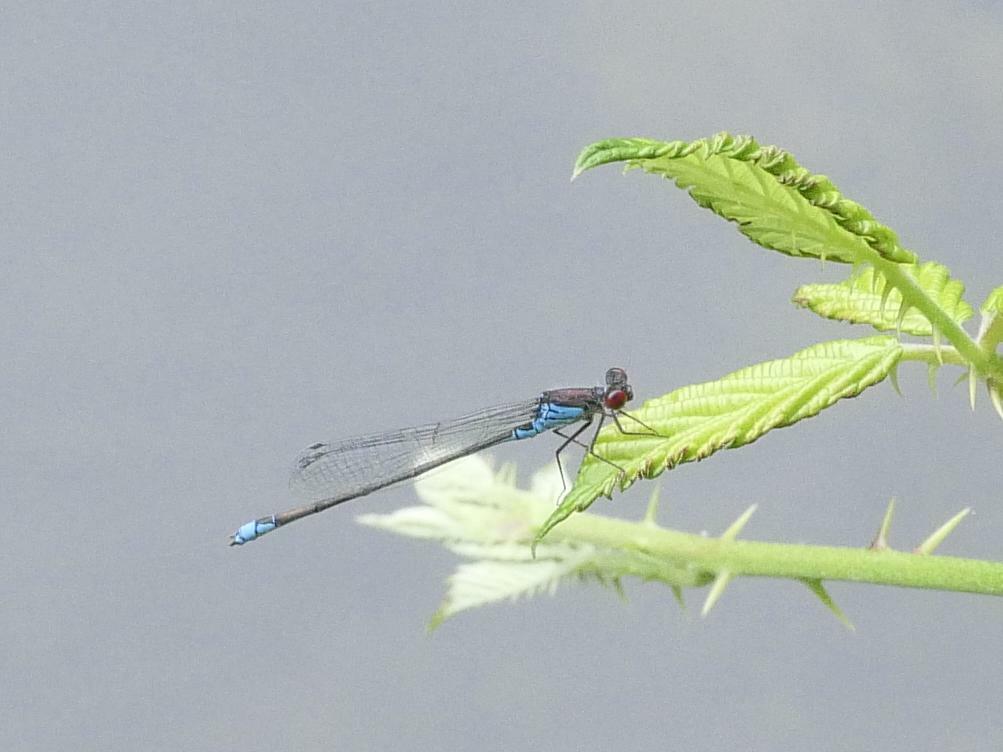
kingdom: Animalia
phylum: Arthropoda
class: Insecta
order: Odonata
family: Coenagrionidae
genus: Erythromma
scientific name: Erythromma viridulum
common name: Small red-eyed damselfly
